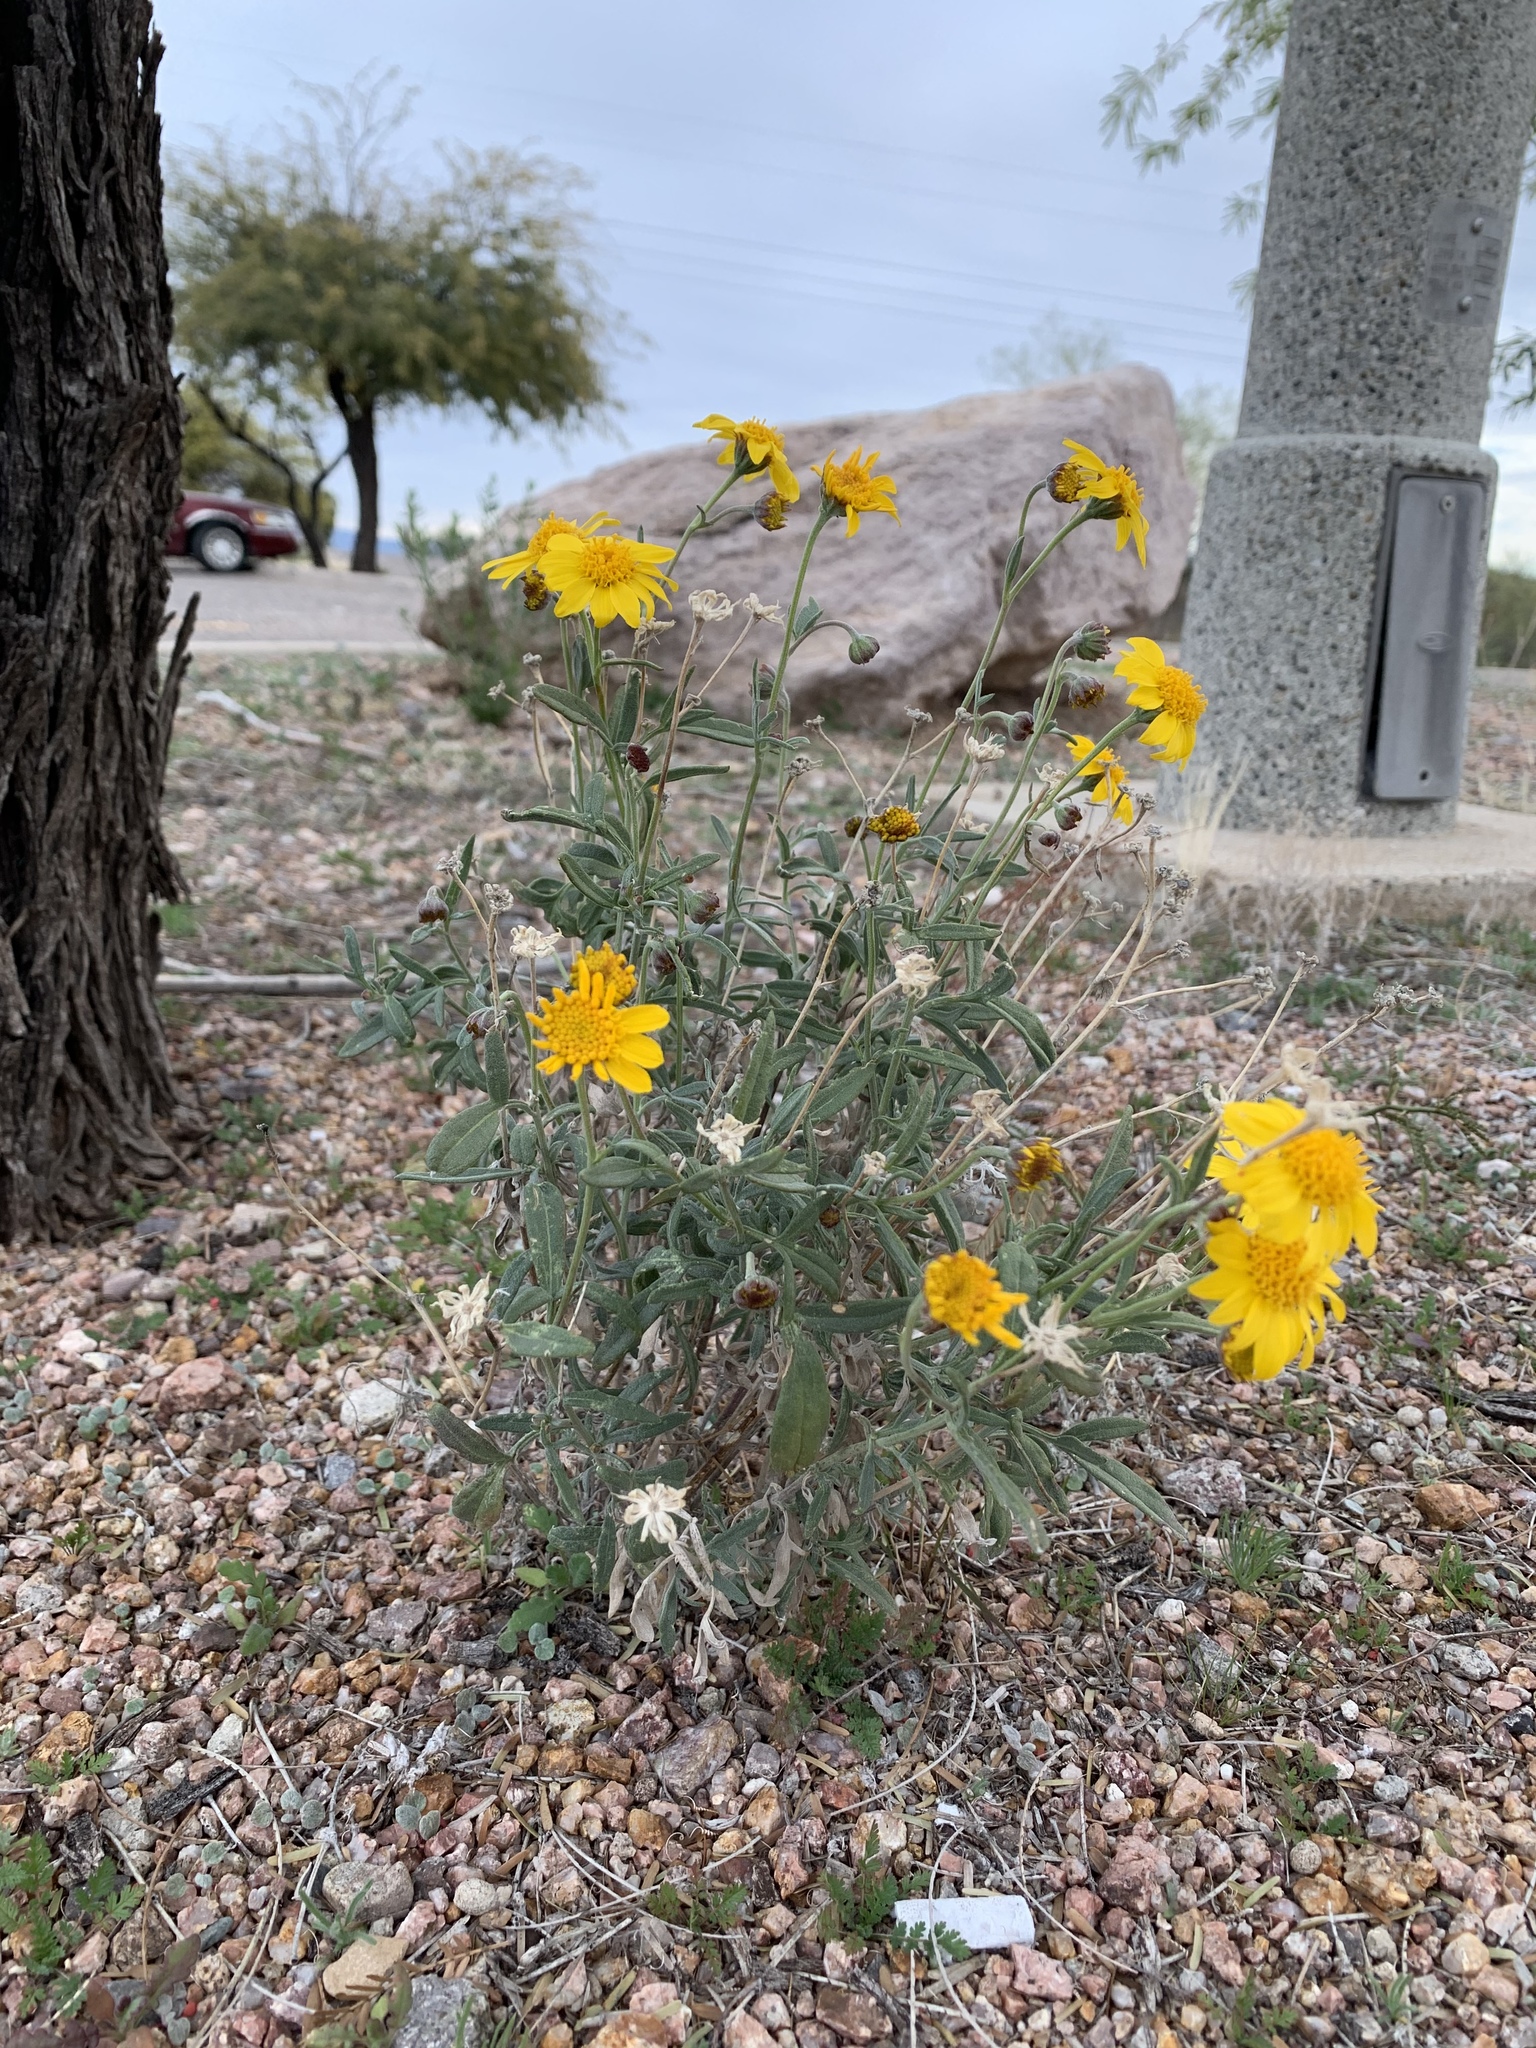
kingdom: Plantae
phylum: Tracheophyta
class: Magnoliopsida
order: Asterales
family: Asteraceae
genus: Picradeniopsis
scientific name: Picradeniopsis absinthifolia
